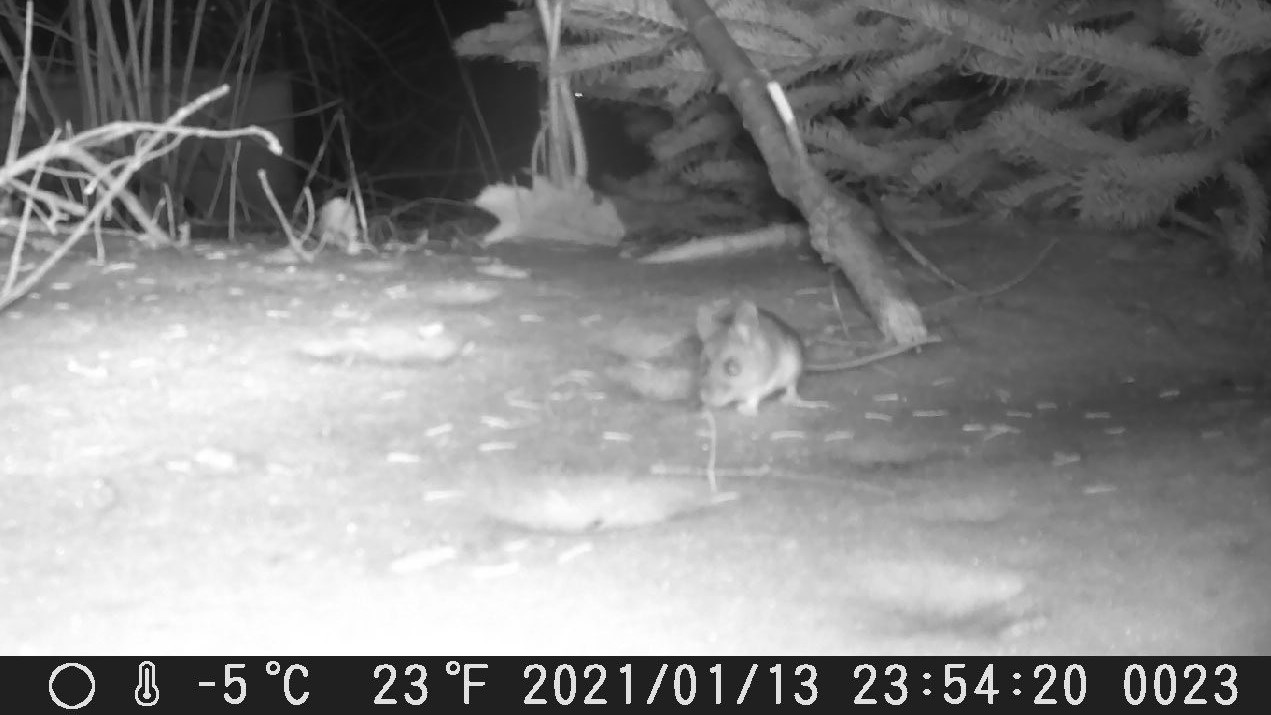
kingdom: Animalia
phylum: Chordata
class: Mammalia
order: Rodentia
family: Cricetidae
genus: Peromyscus
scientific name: Peromyscus
